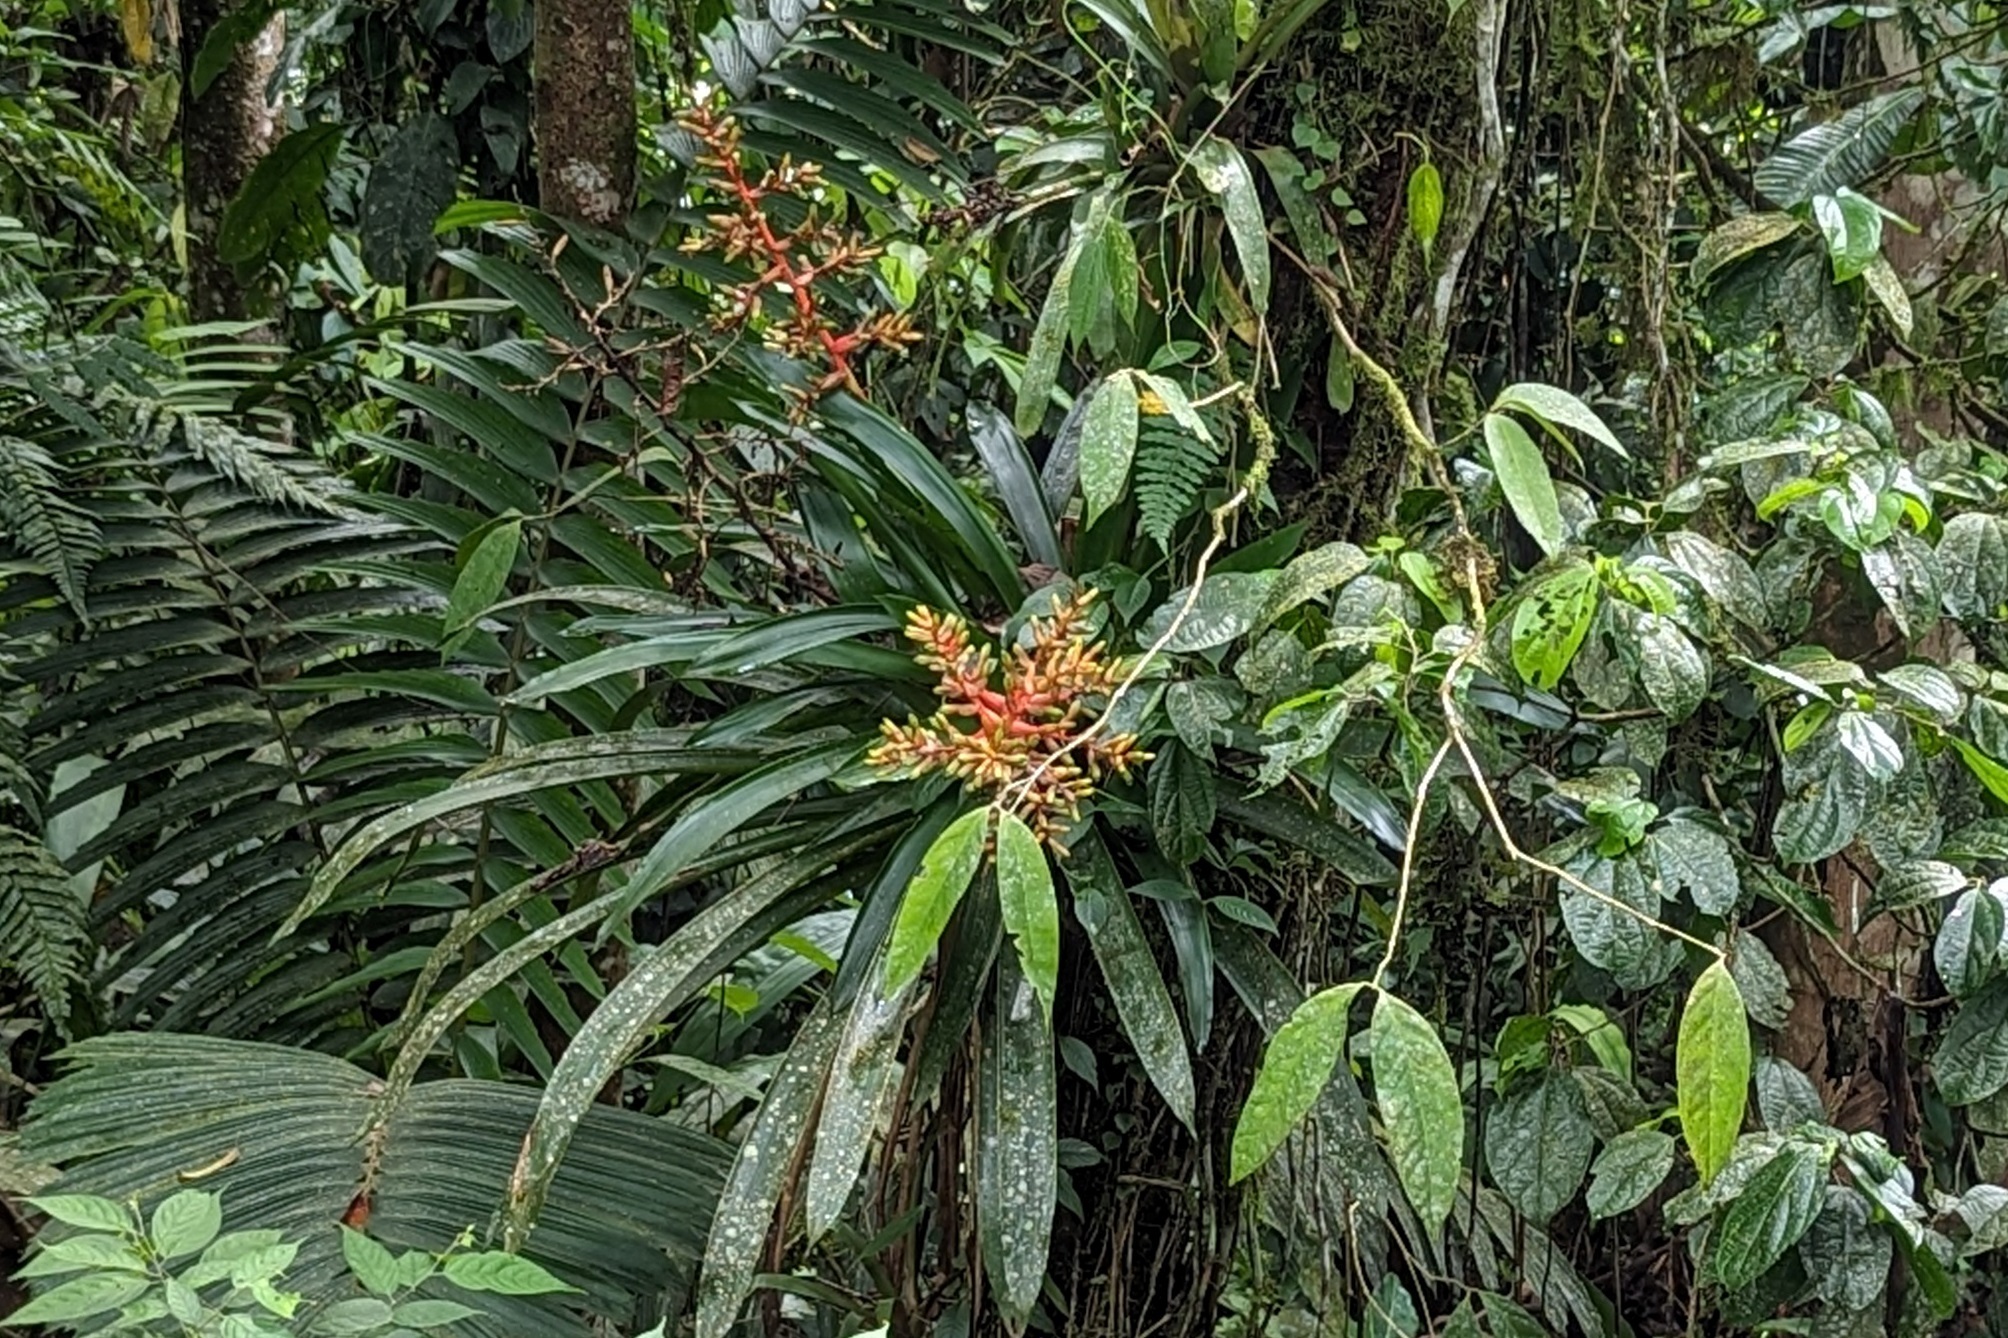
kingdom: Plantae
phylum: Tracheophyta
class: Liliopsida
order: Poales
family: Bromeliaceae
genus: Guzmania
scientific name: Guzmania scherzeriana
